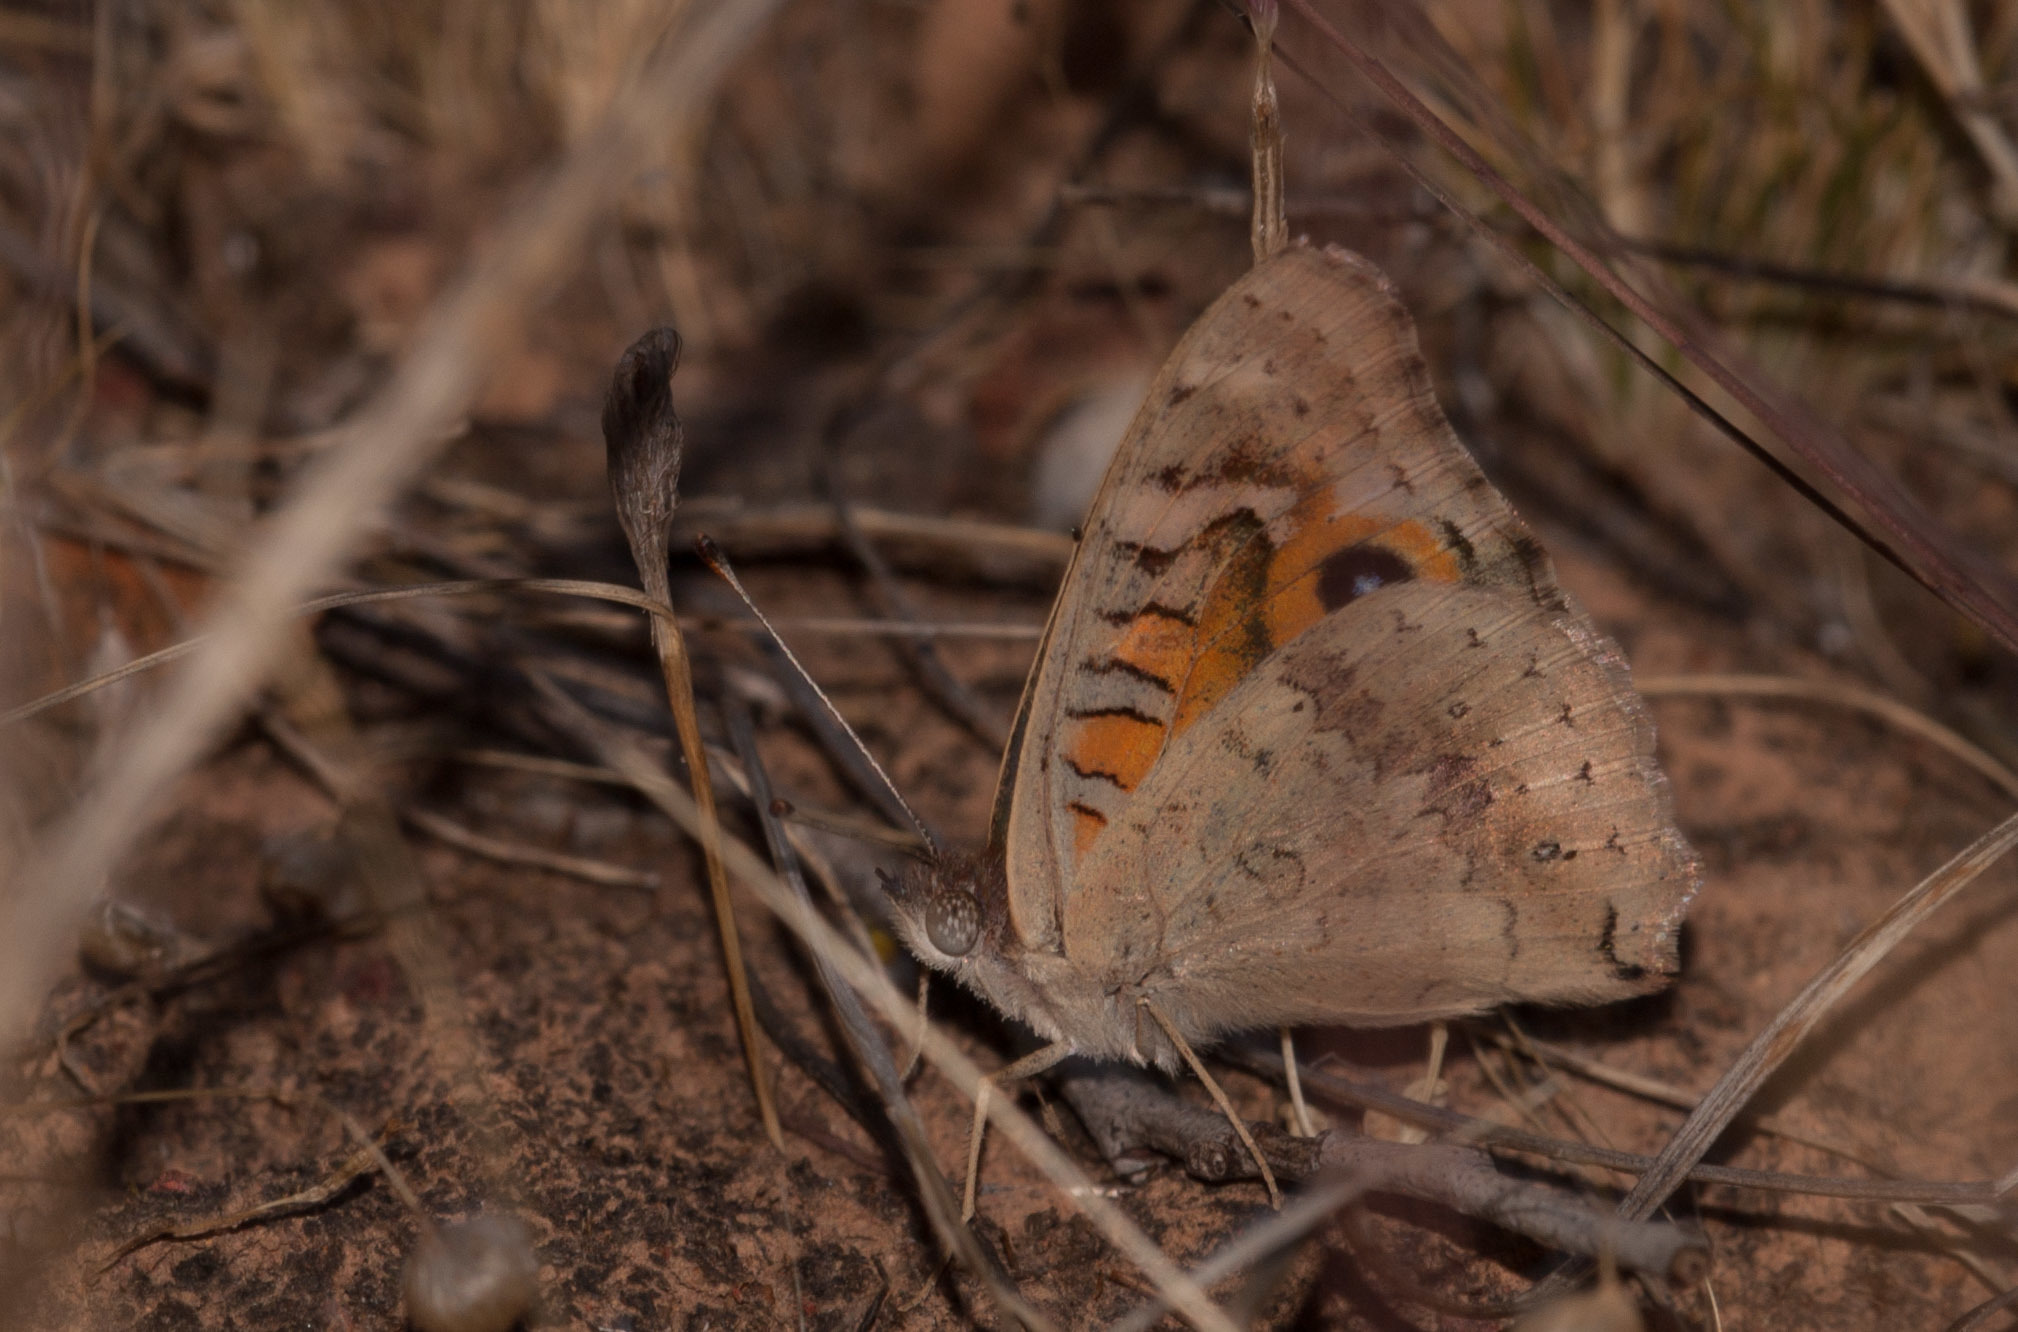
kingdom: Animalia
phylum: Arthropoda
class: Insecta
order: Lepidoptera
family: Nymphalidae
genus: Junonia
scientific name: Junonia villida
